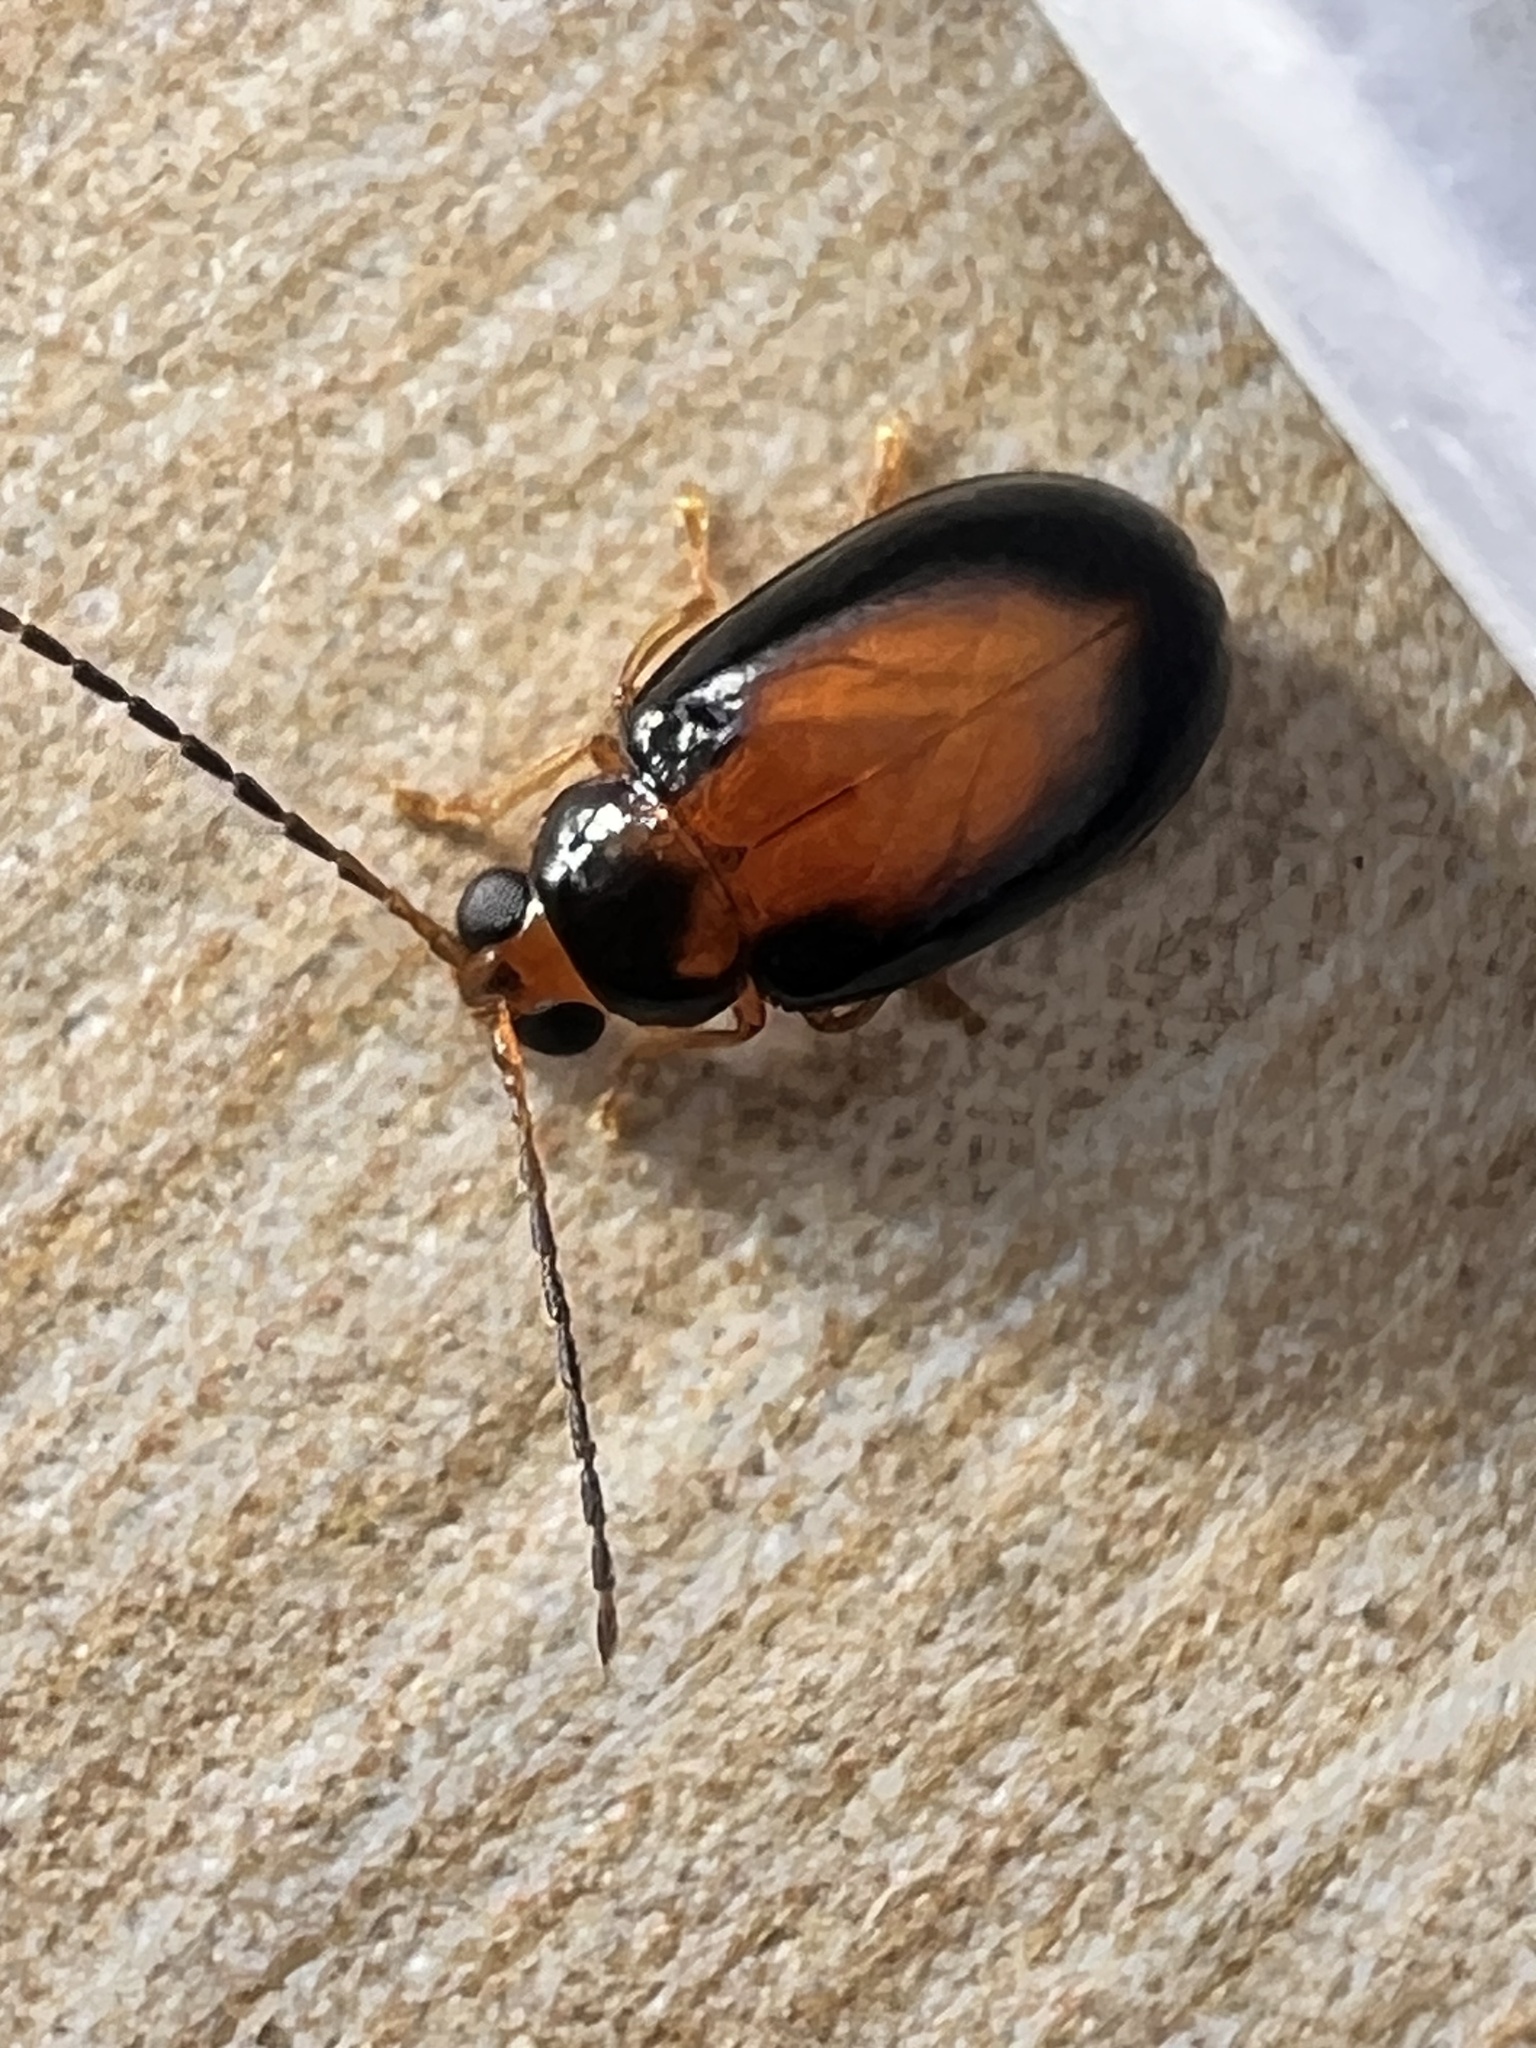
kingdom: Animalia
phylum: Arthropoda
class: Insecta
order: Coleoptera
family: Chrysomelidae
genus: Monolepta
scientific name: Monolepta
